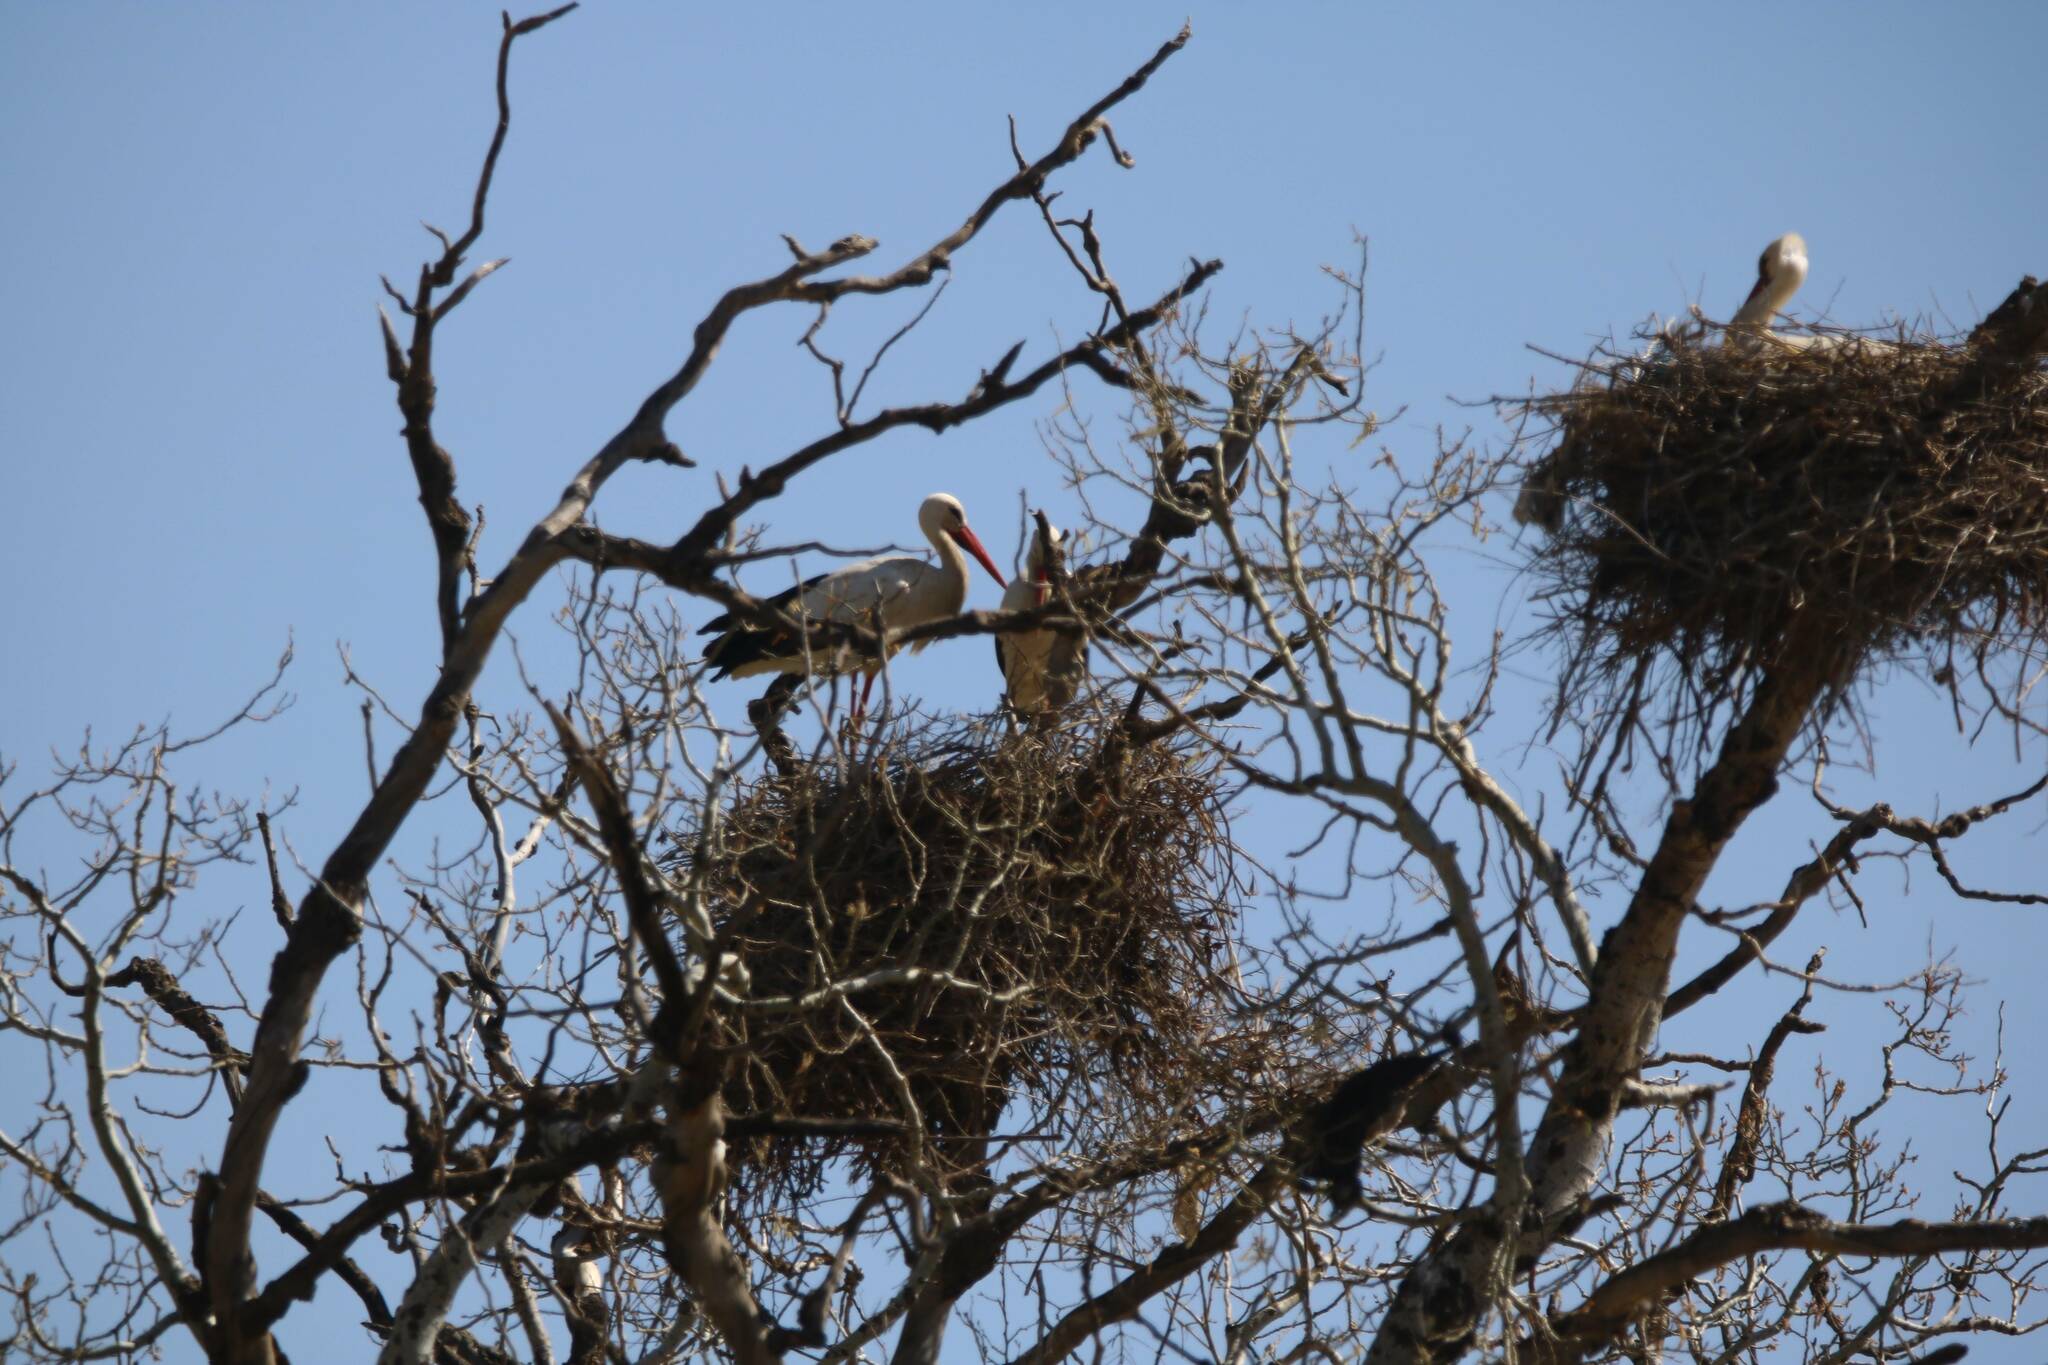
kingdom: Animalia
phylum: Chordata
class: Aves
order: Ciconiiformes
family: Ciconiidae
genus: Ciconia
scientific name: Ciconia ciconia
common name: White stork
